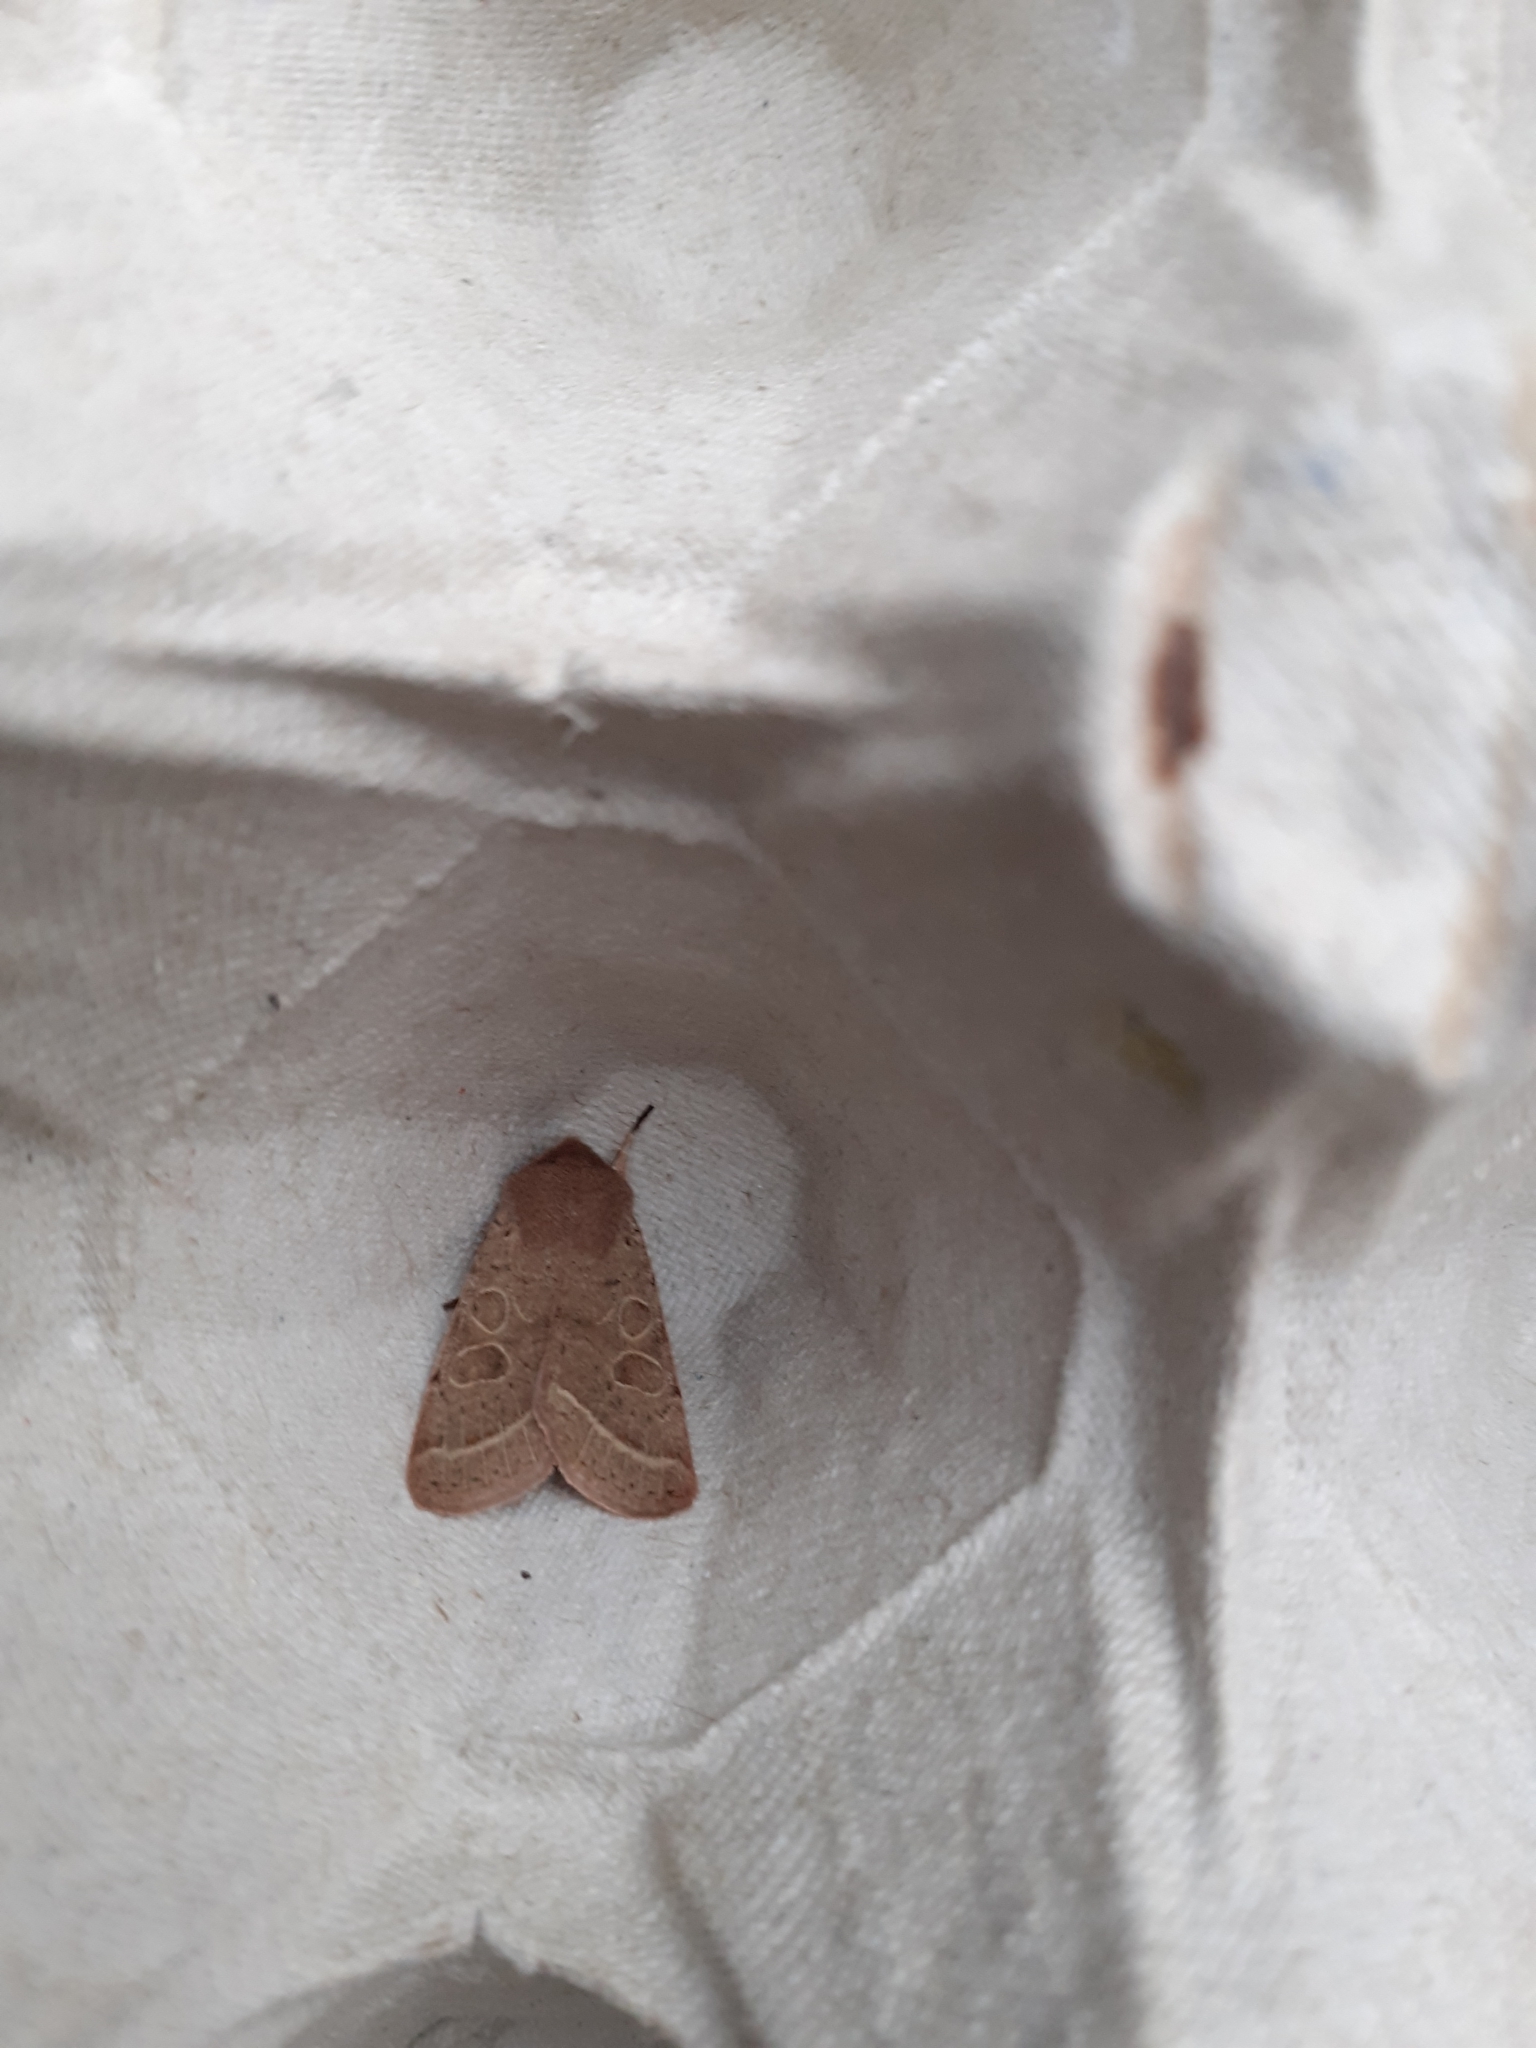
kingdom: Animalia
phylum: Arthropoda
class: Insecta
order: Lepidoptera
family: Noctuidae
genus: Orthosia
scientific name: Orthosia cerasi
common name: Common quaker
